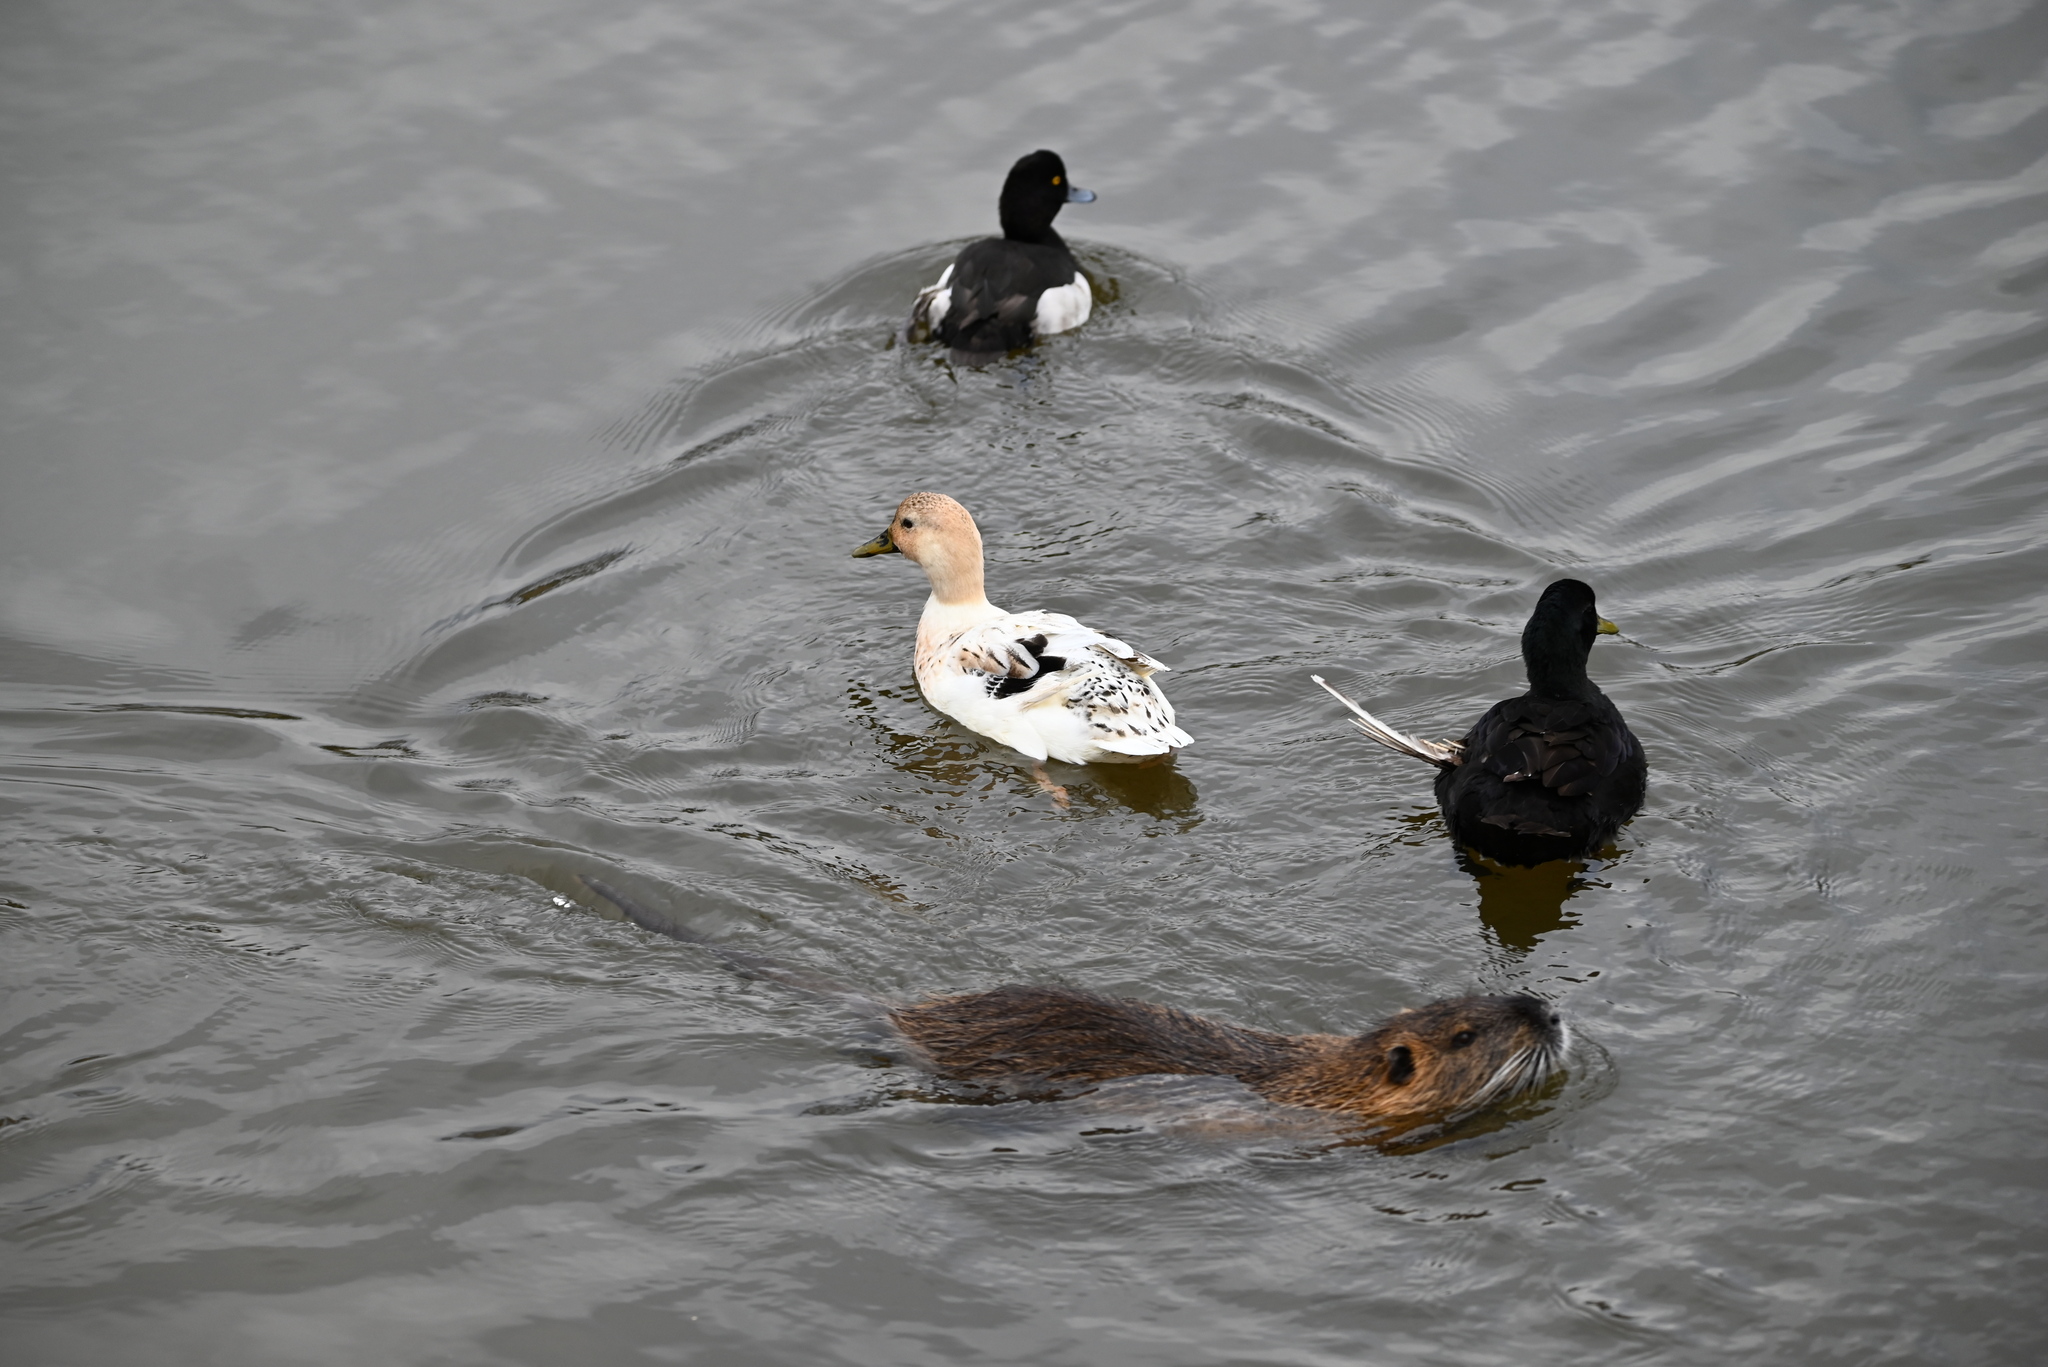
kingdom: Animalia
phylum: Chordata
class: Aves
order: Anseriformes
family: Anatidae
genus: Anas
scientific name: Anas platyrhynchos
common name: Mallard
